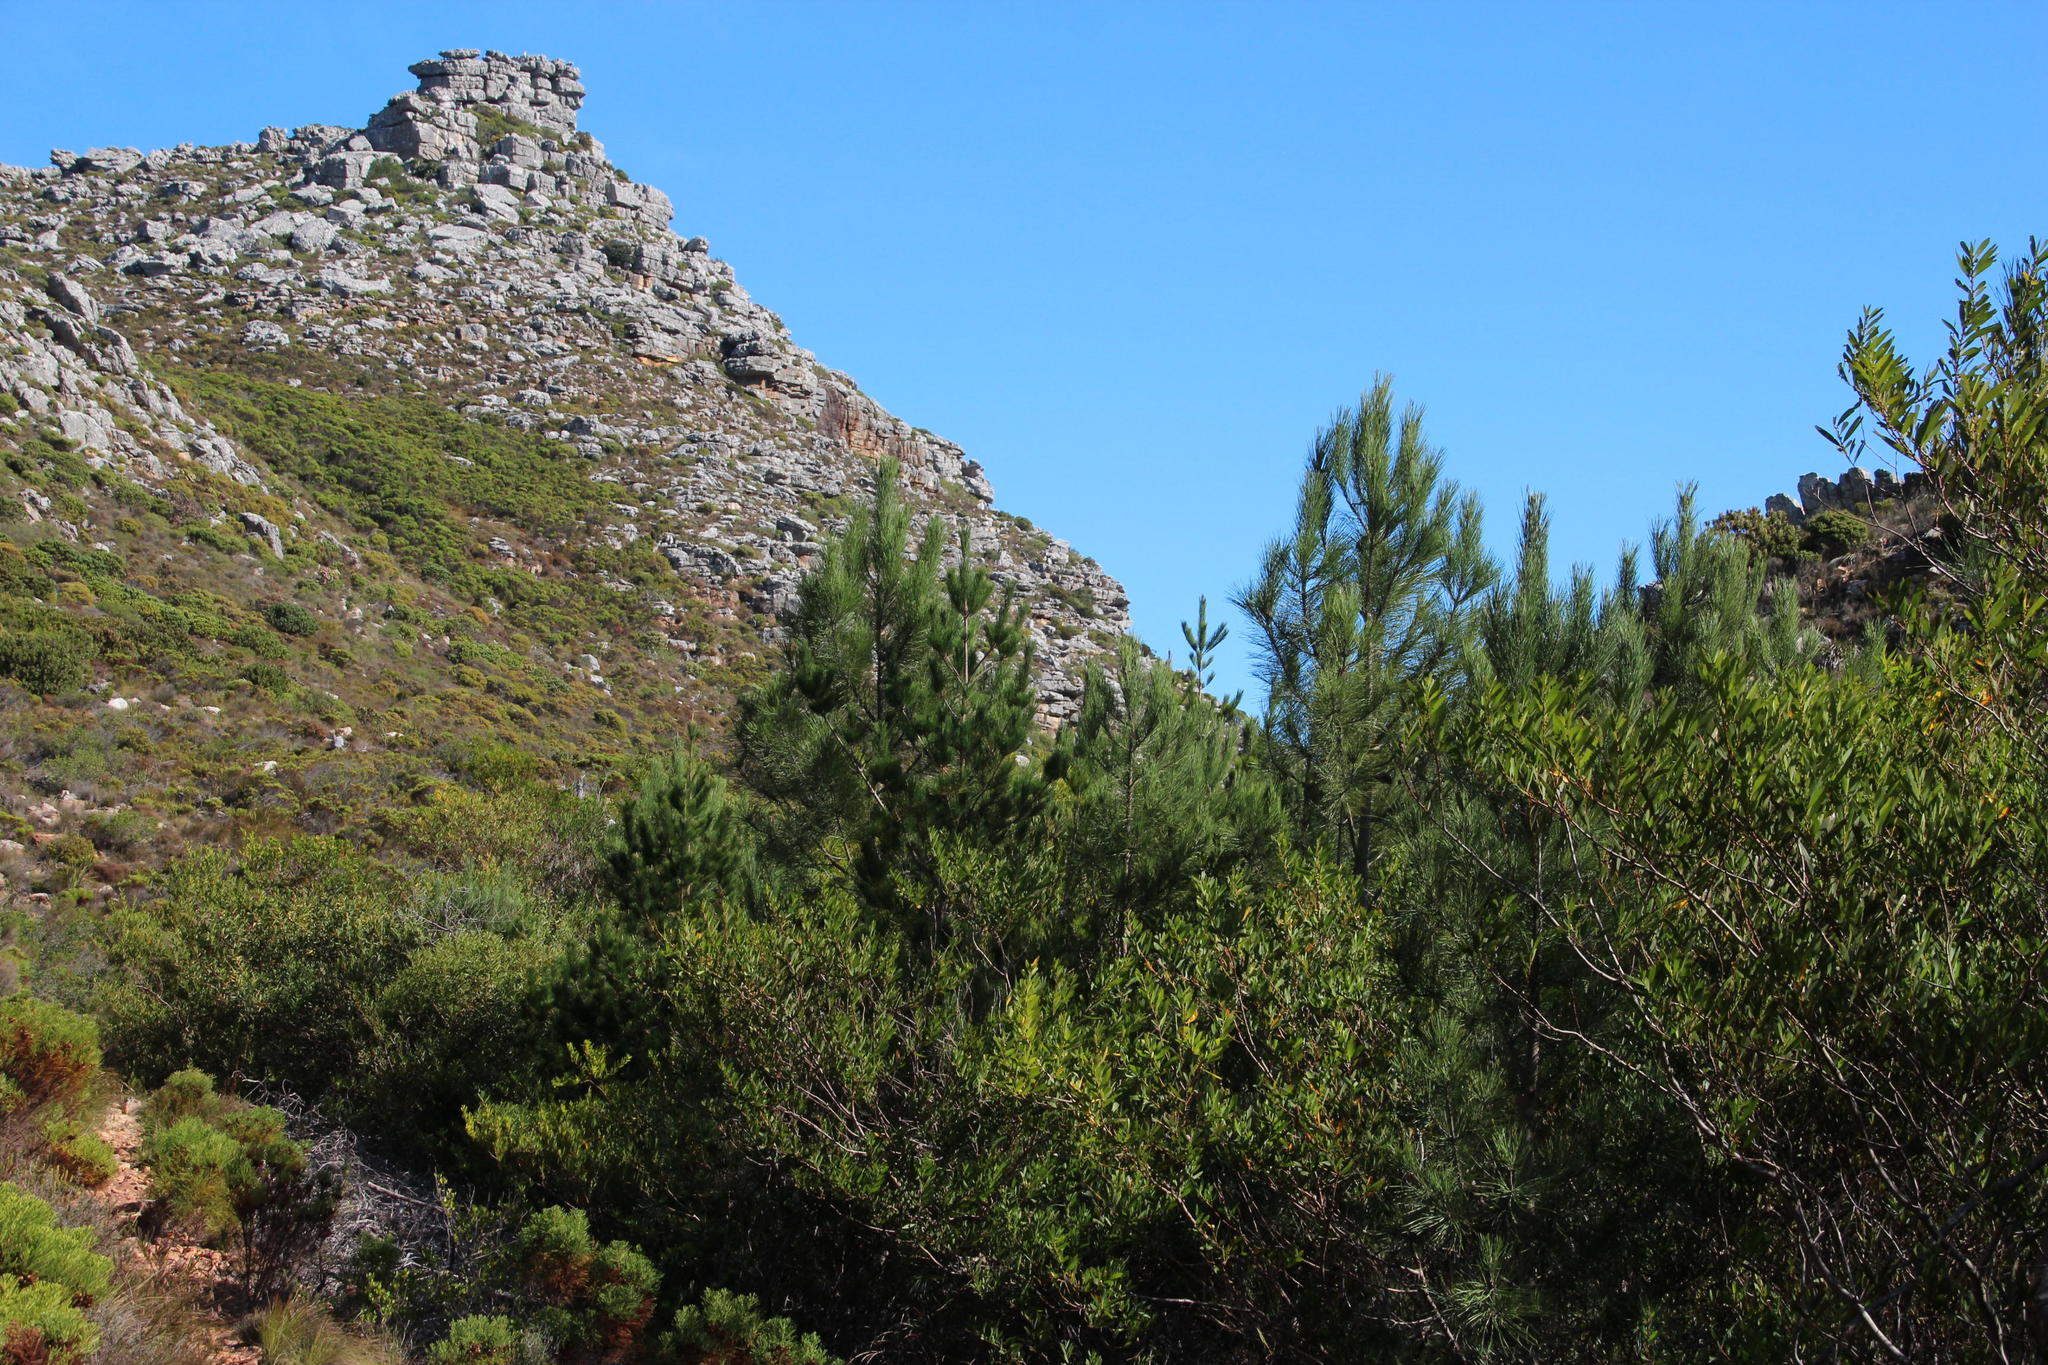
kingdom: Plantae
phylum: Tracheophyta
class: Pinopsida
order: Pinales
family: Pinaceae
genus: Pinus
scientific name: Pinus pinaster
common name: Maritime pine
